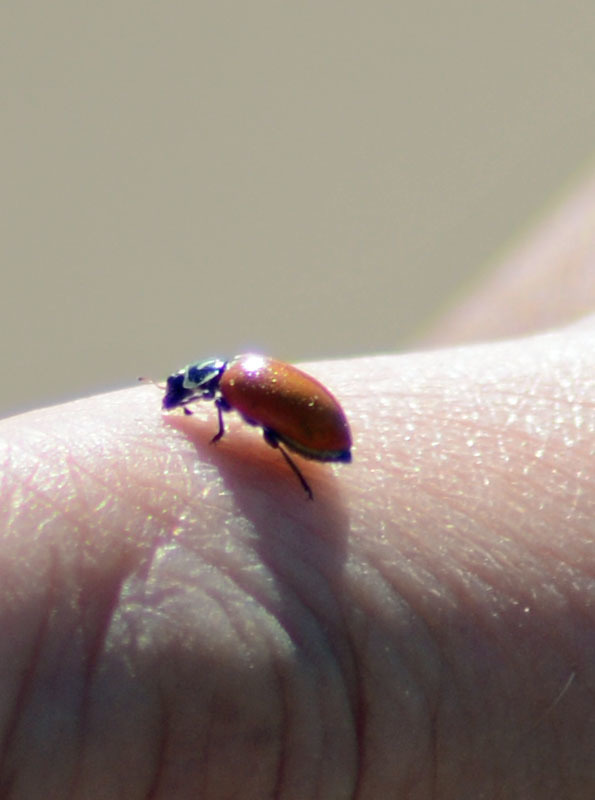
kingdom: Animalia
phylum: Arthropoda
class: Insecta
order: Coleoptera
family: Coccinellidae
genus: Hippodamia
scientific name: Hippodamia convergens
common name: Convergent lady beetle
